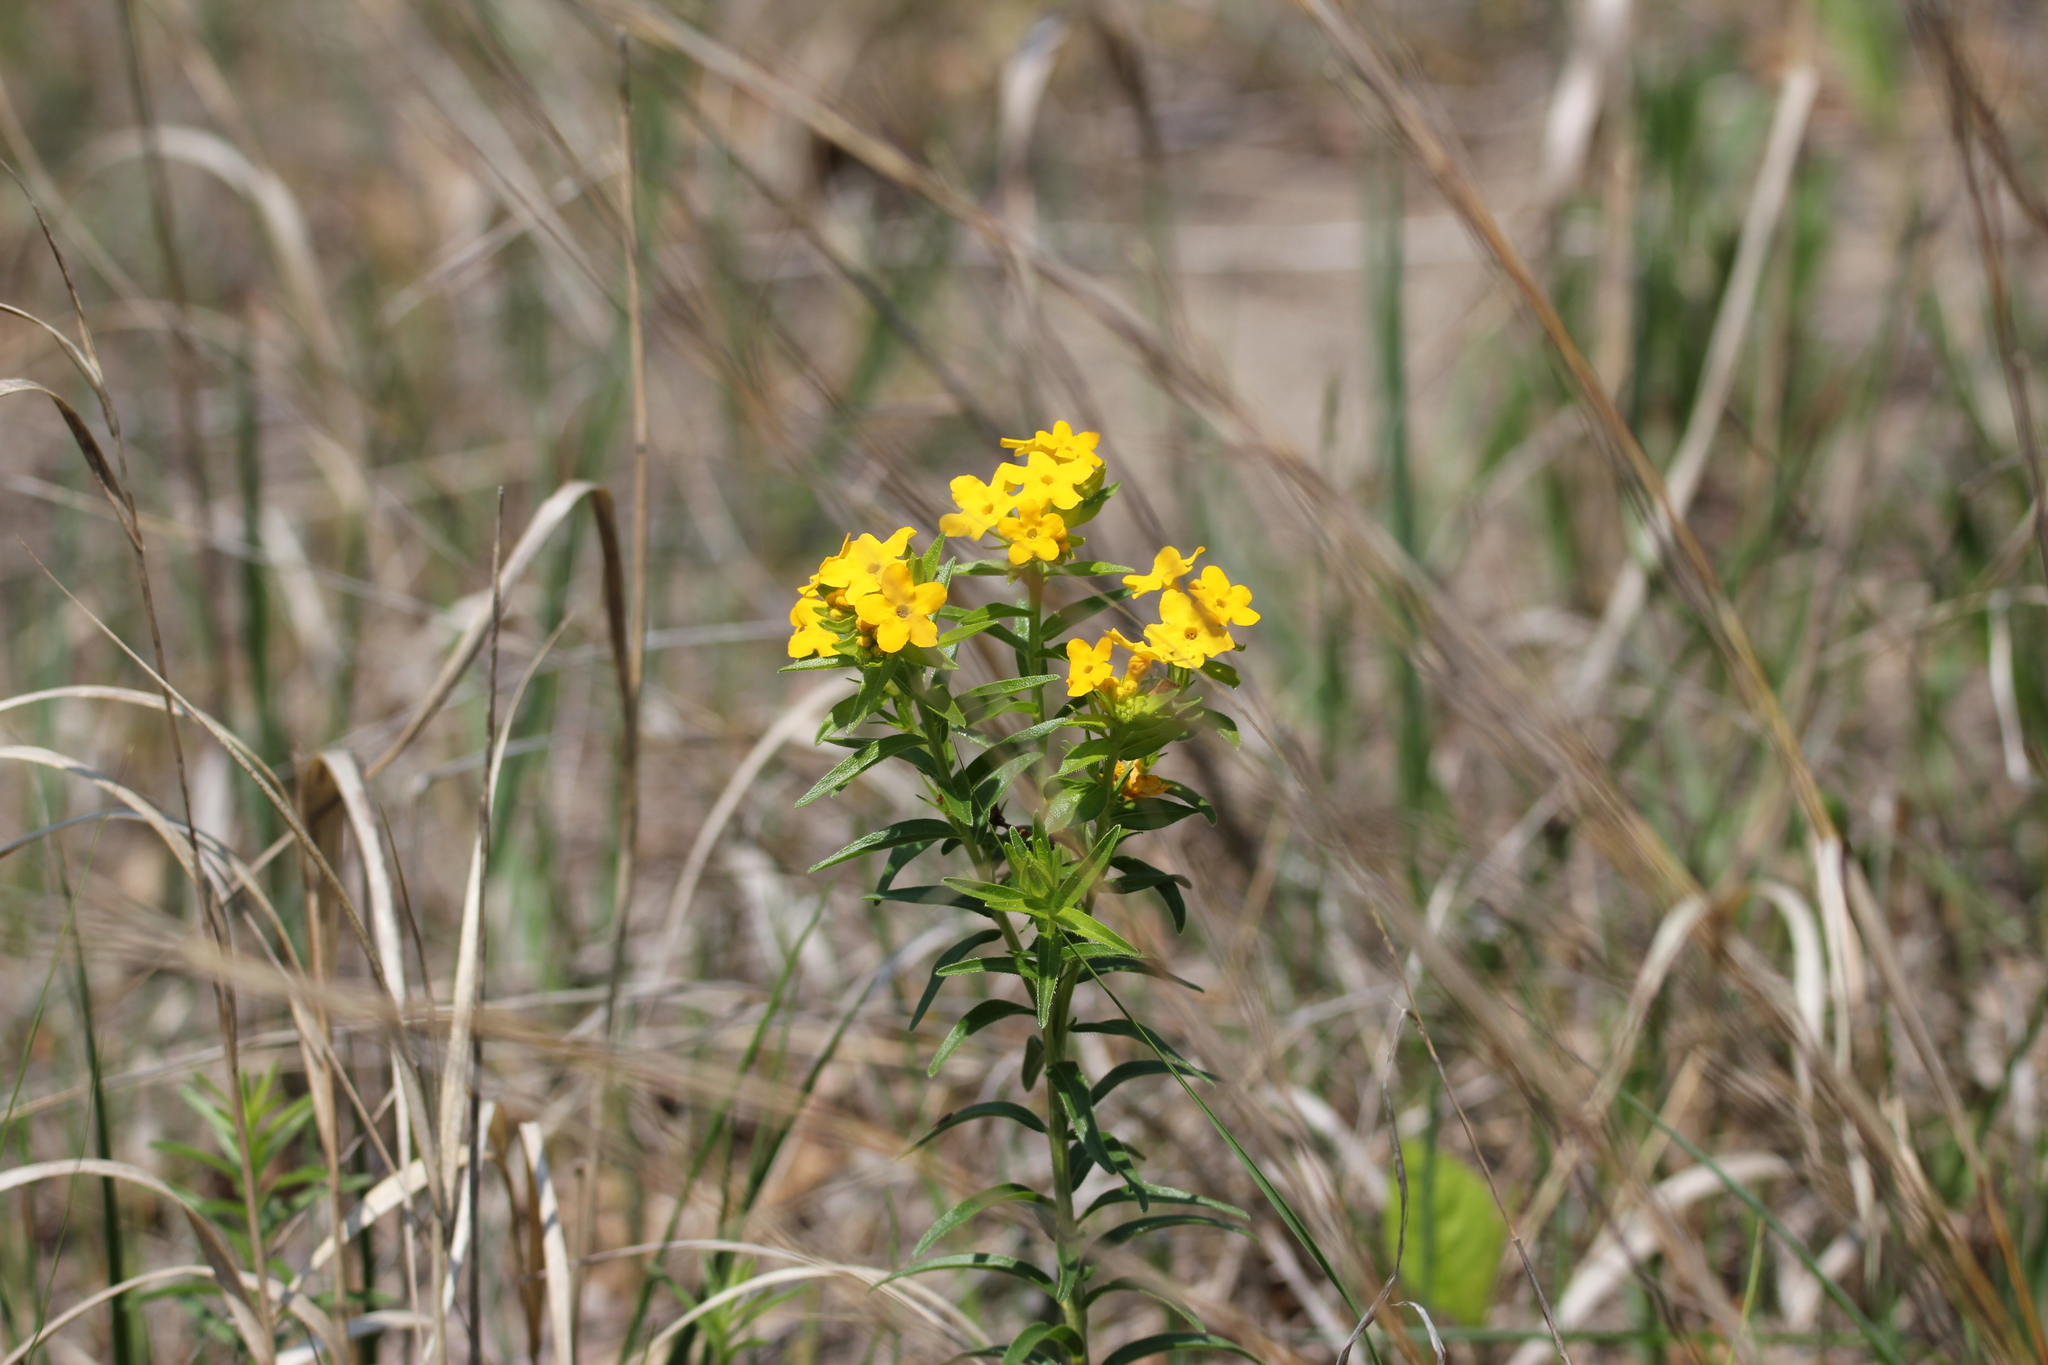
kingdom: Plantae
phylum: Tracheophyta
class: Magnoliopsida
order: Boraginales
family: Boraginaceae
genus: Lithospermum
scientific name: Lithospermum caroliniense
